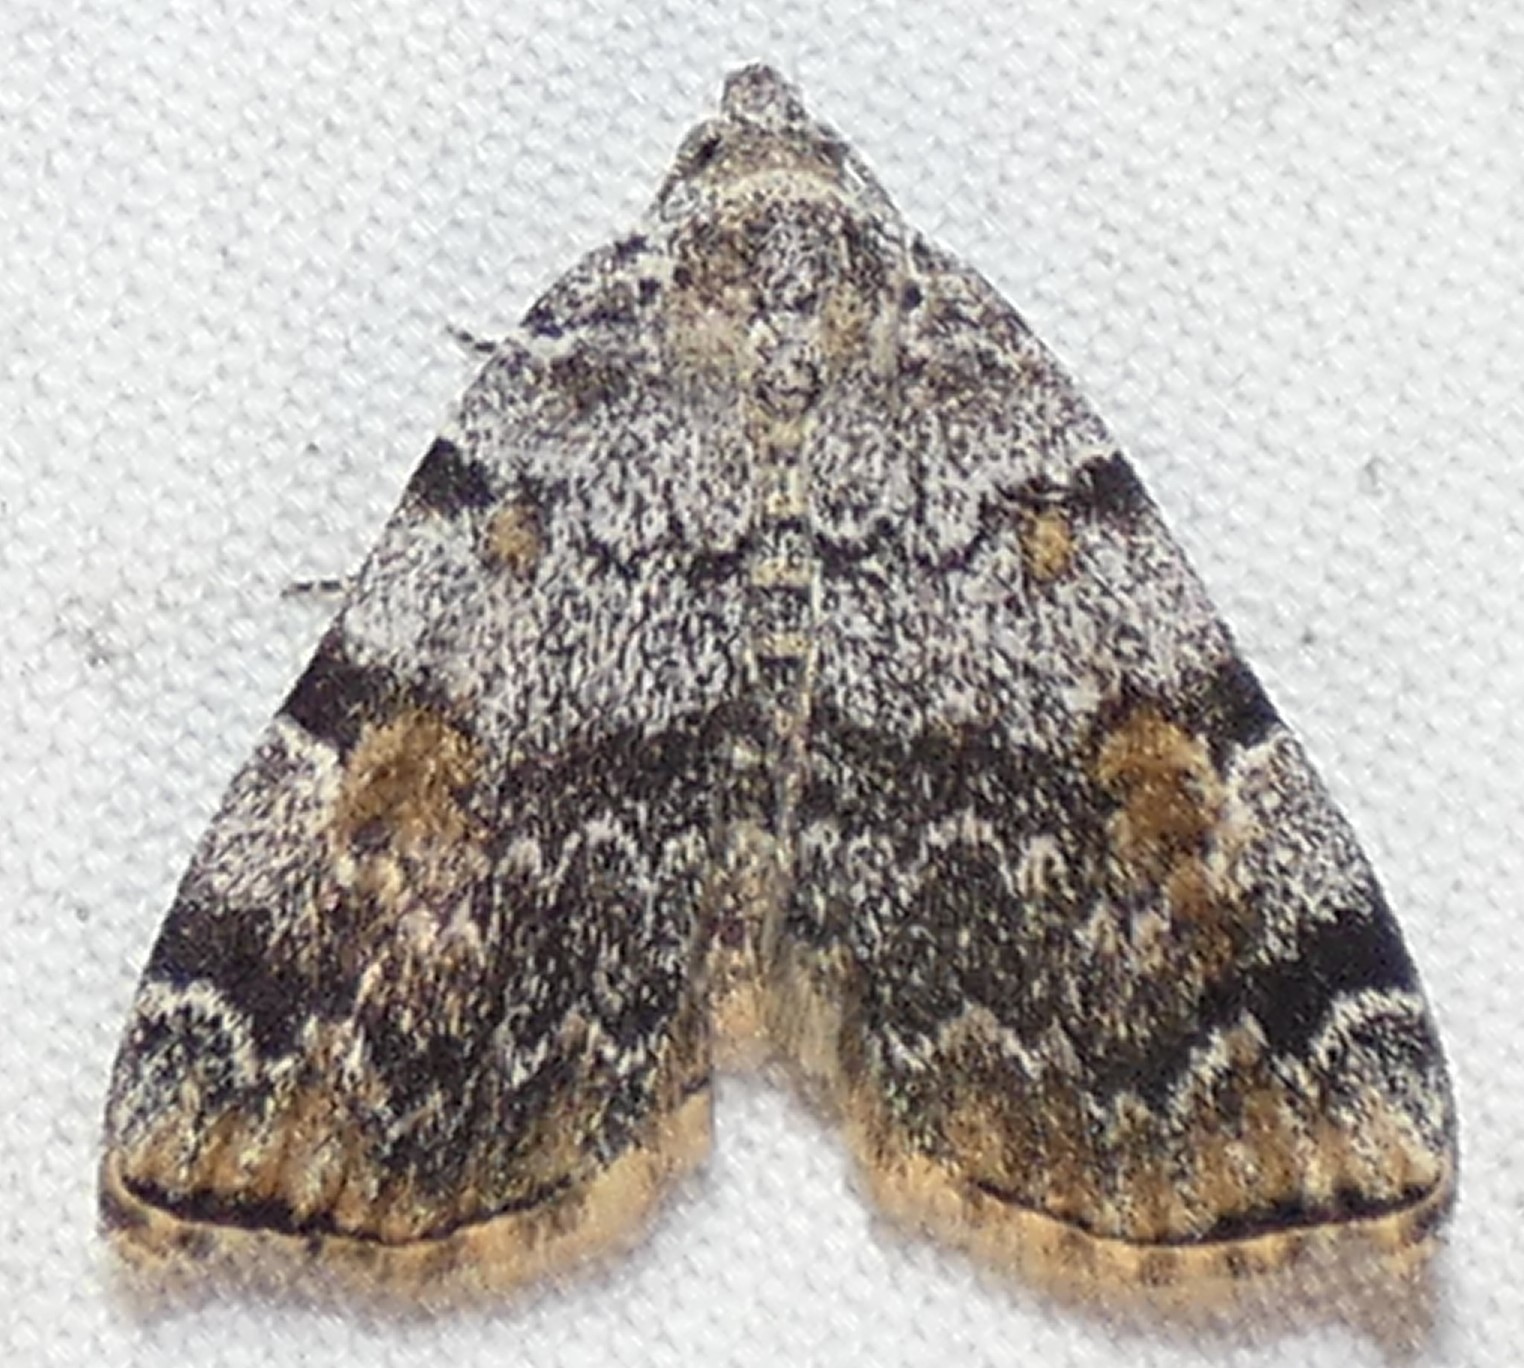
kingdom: Animalia
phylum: Arthropoda
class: Insecta
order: Lepidoptera
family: Erebidae
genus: Idia
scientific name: Idia americalis
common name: American idia moth
